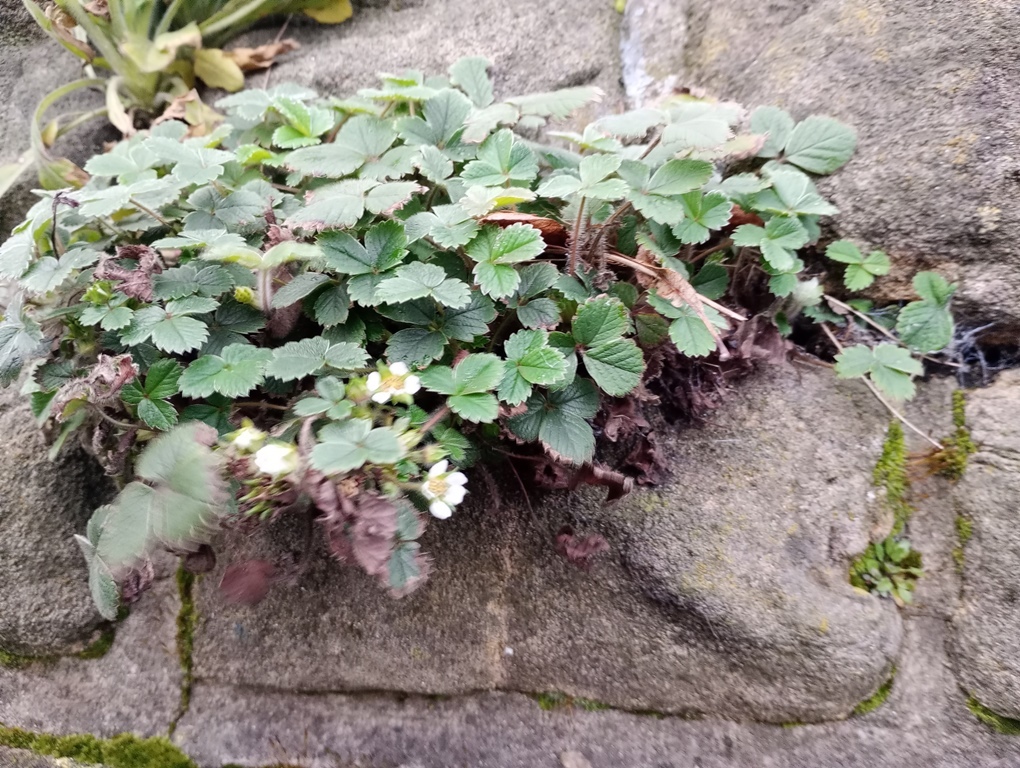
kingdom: Plantae
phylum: Tracheophyta
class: Magnoliopsida
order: Rosales
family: Rosaceae
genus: Potentilla
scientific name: Potentilla sterilis
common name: Barren strawberry
